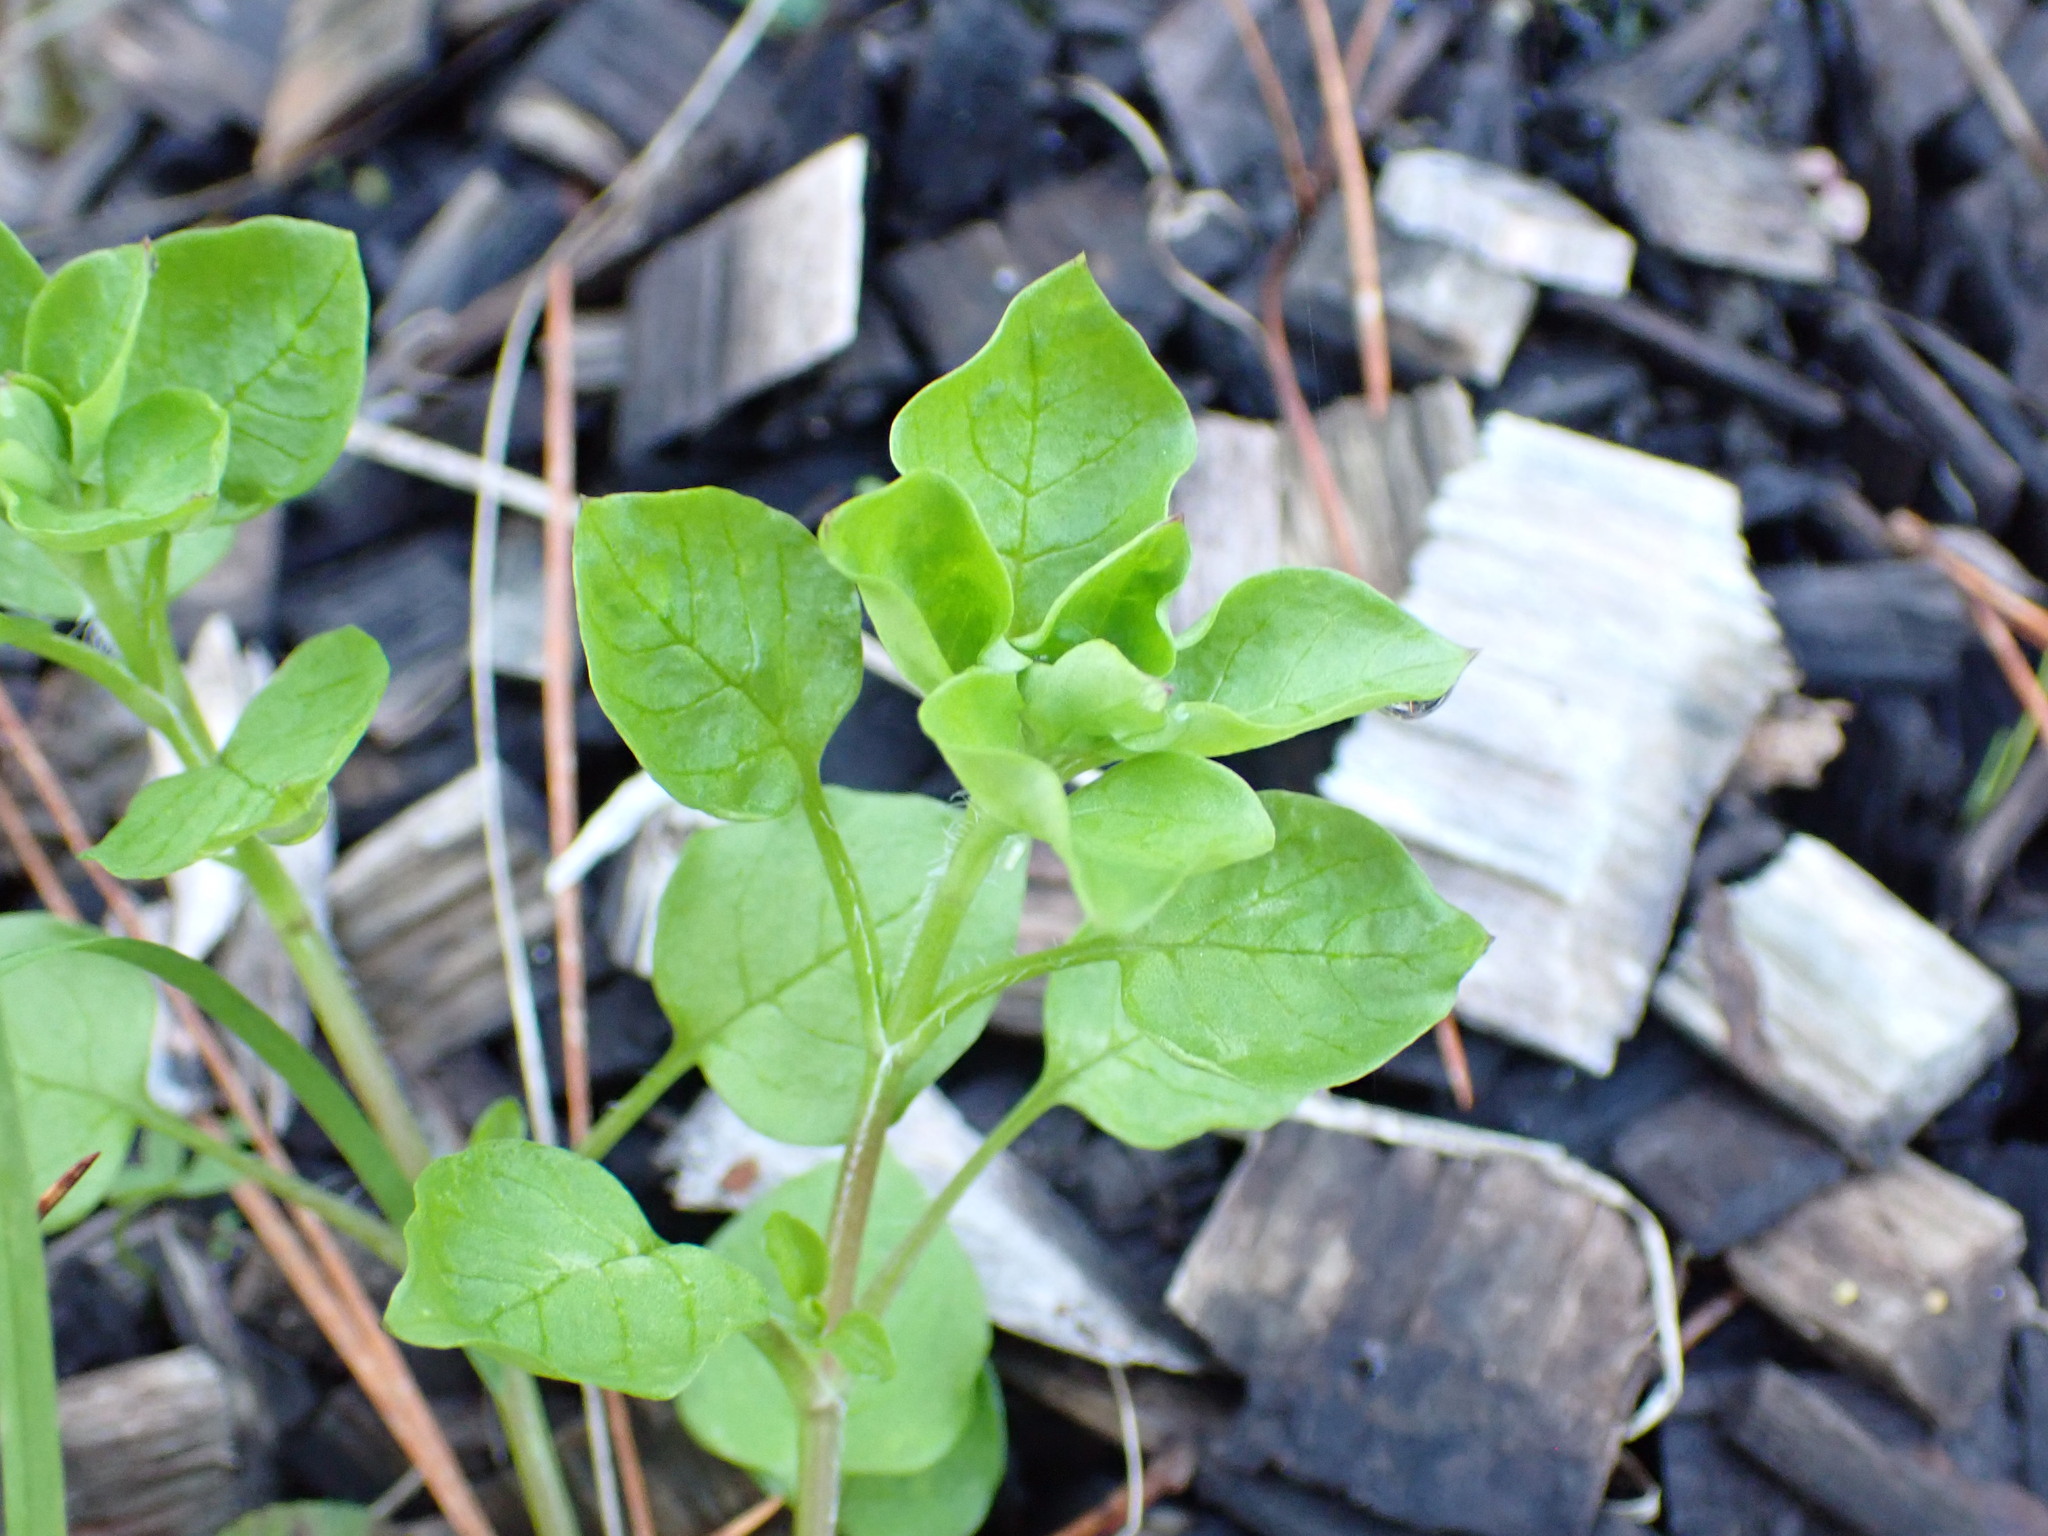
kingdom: Plantae
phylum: Tracheophyta
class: Magnoliopsida
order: Caryophyllales
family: Caryophyllaceae
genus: Stellaria
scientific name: Stellaria media
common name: Common chickweed
